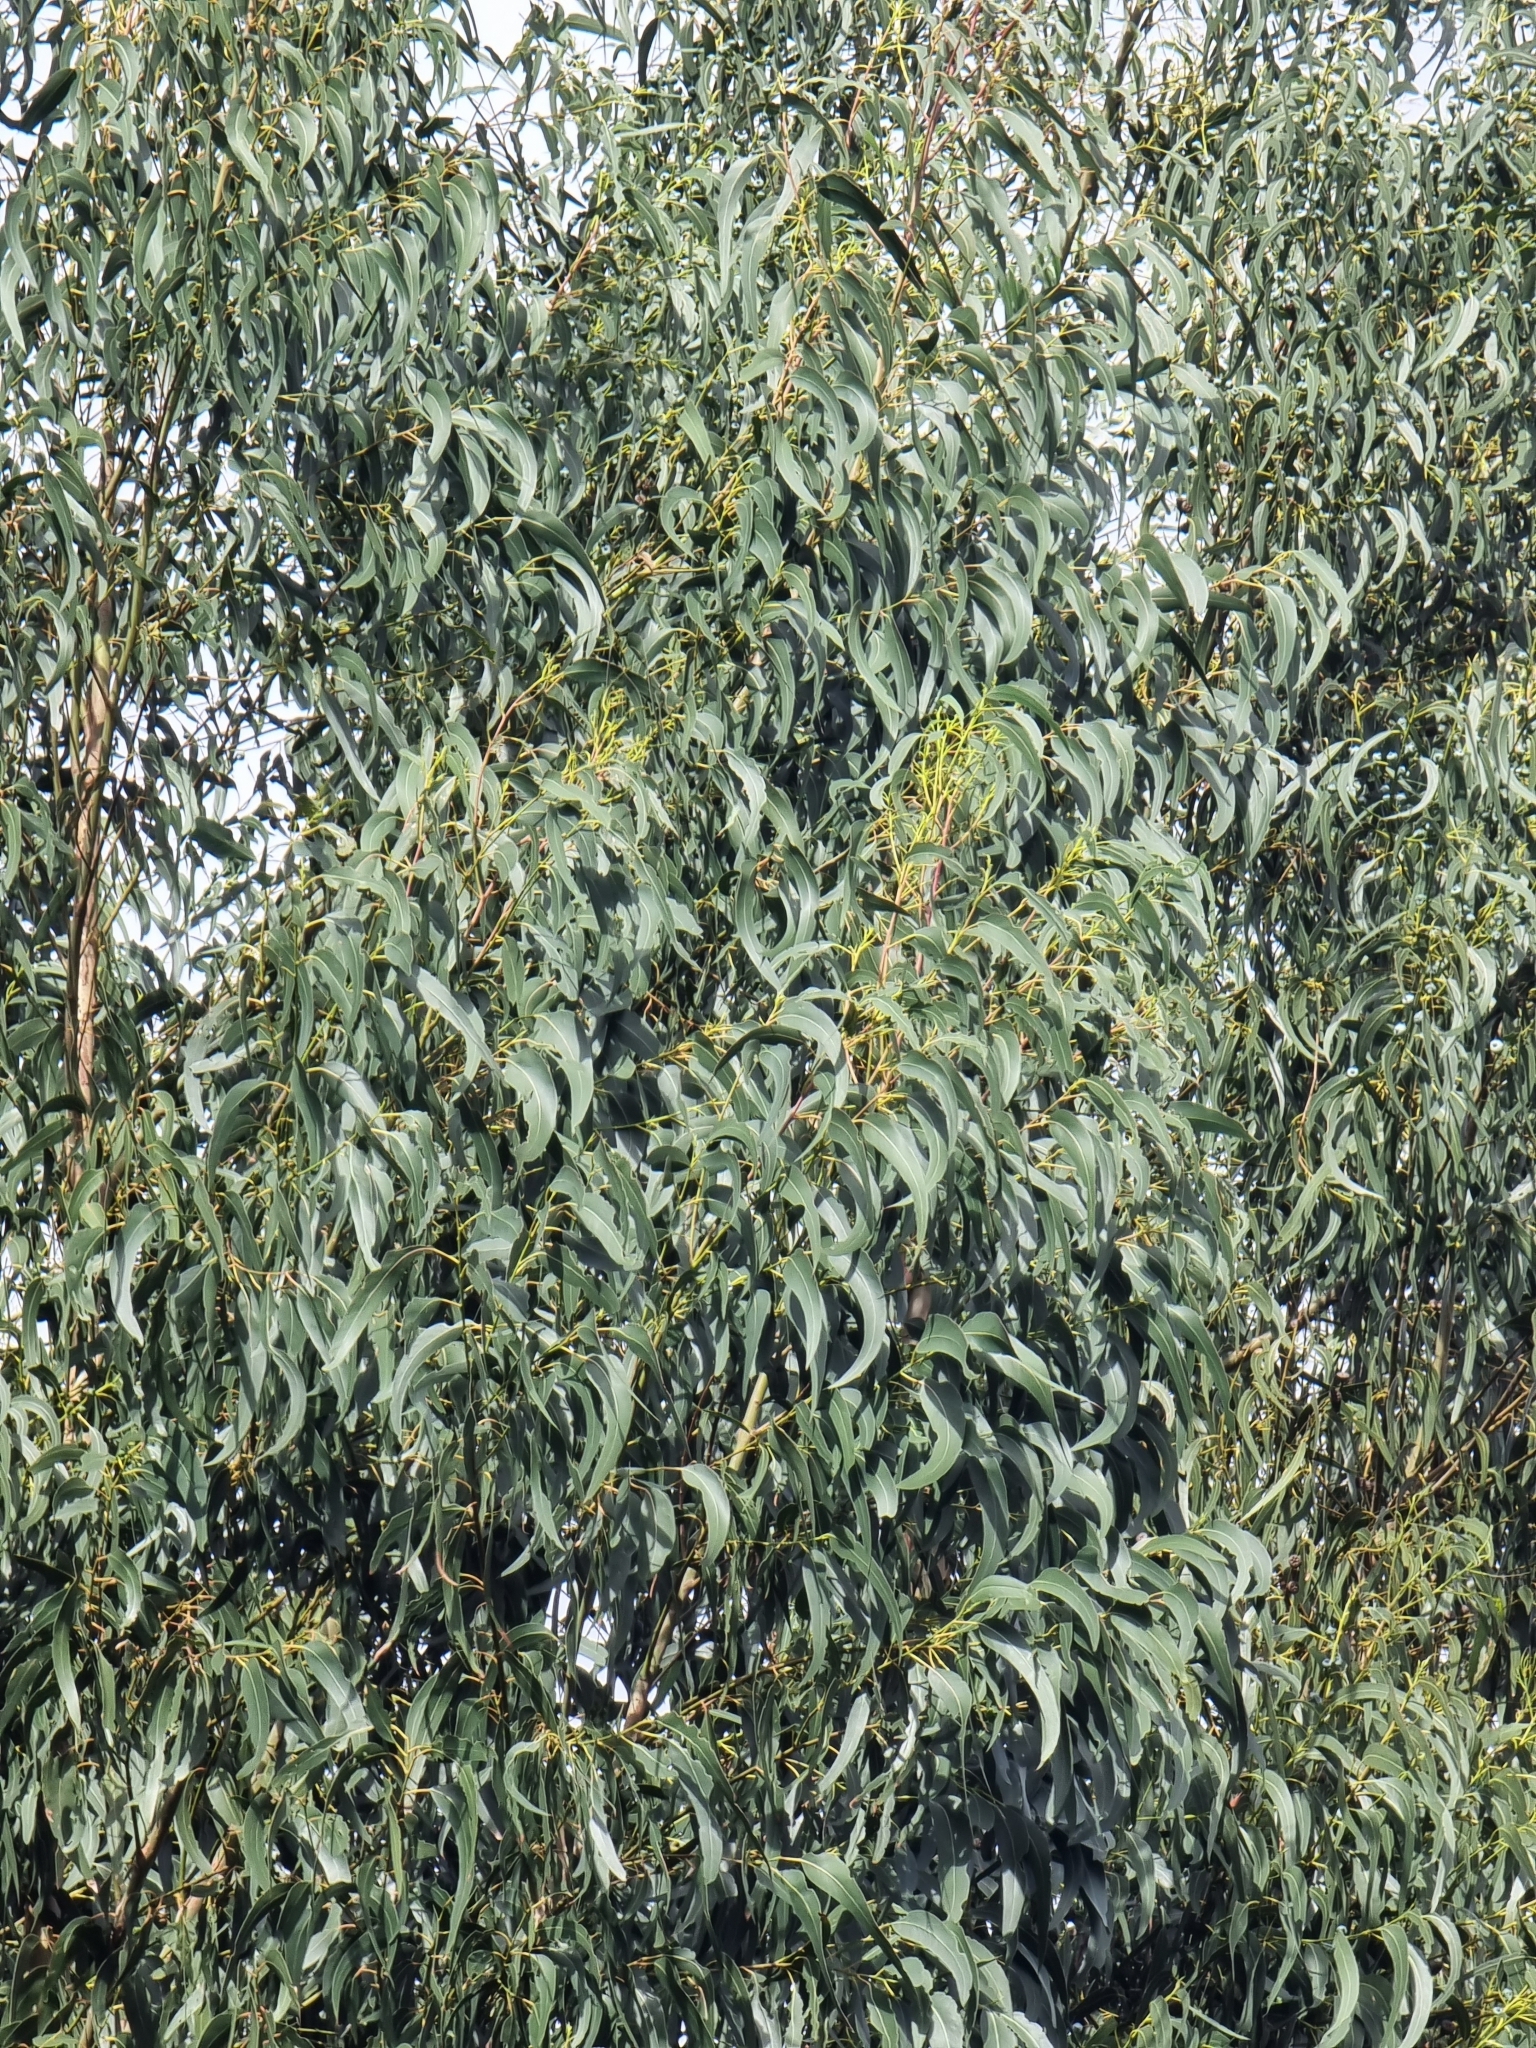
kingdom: Plantae
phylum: Tracheophyta
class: Magnoliopsida
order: Myrtales
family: Myrtaceae
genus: Eucalyptus
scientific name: Eucalyptus globulus
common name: Southern blue-gum
